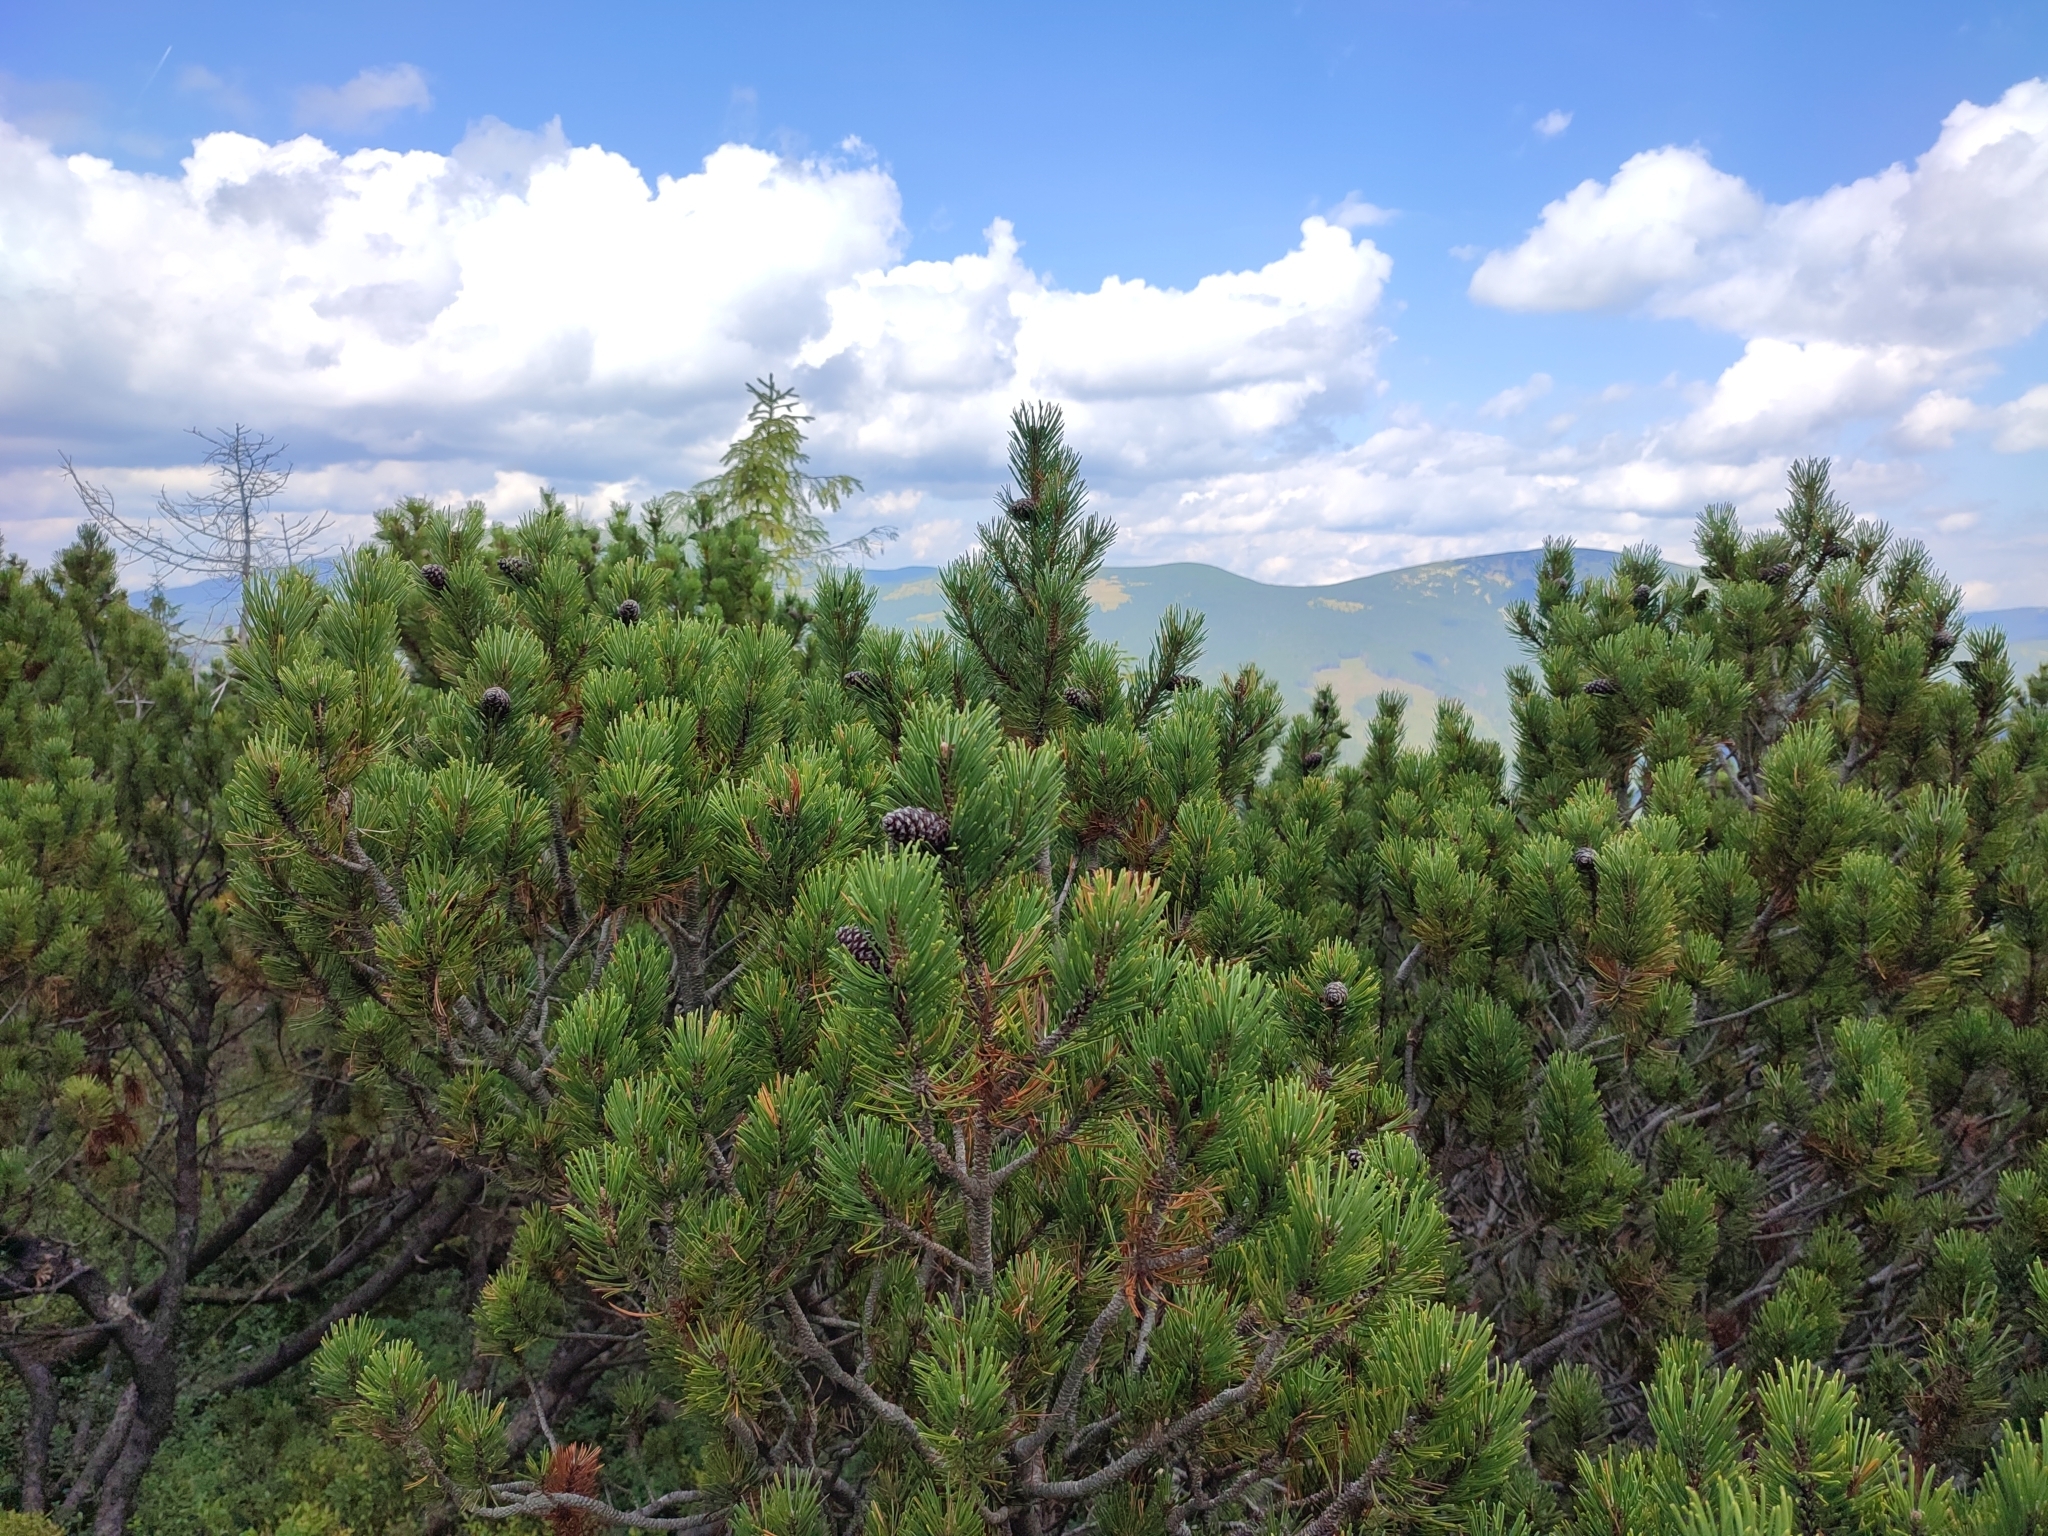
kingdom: Plantae
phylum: Tracheophyta
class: Pinopsida
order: Pinales
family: Pinaceae
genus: Pinus
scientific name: Pinus mugo
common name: Mugo pine
